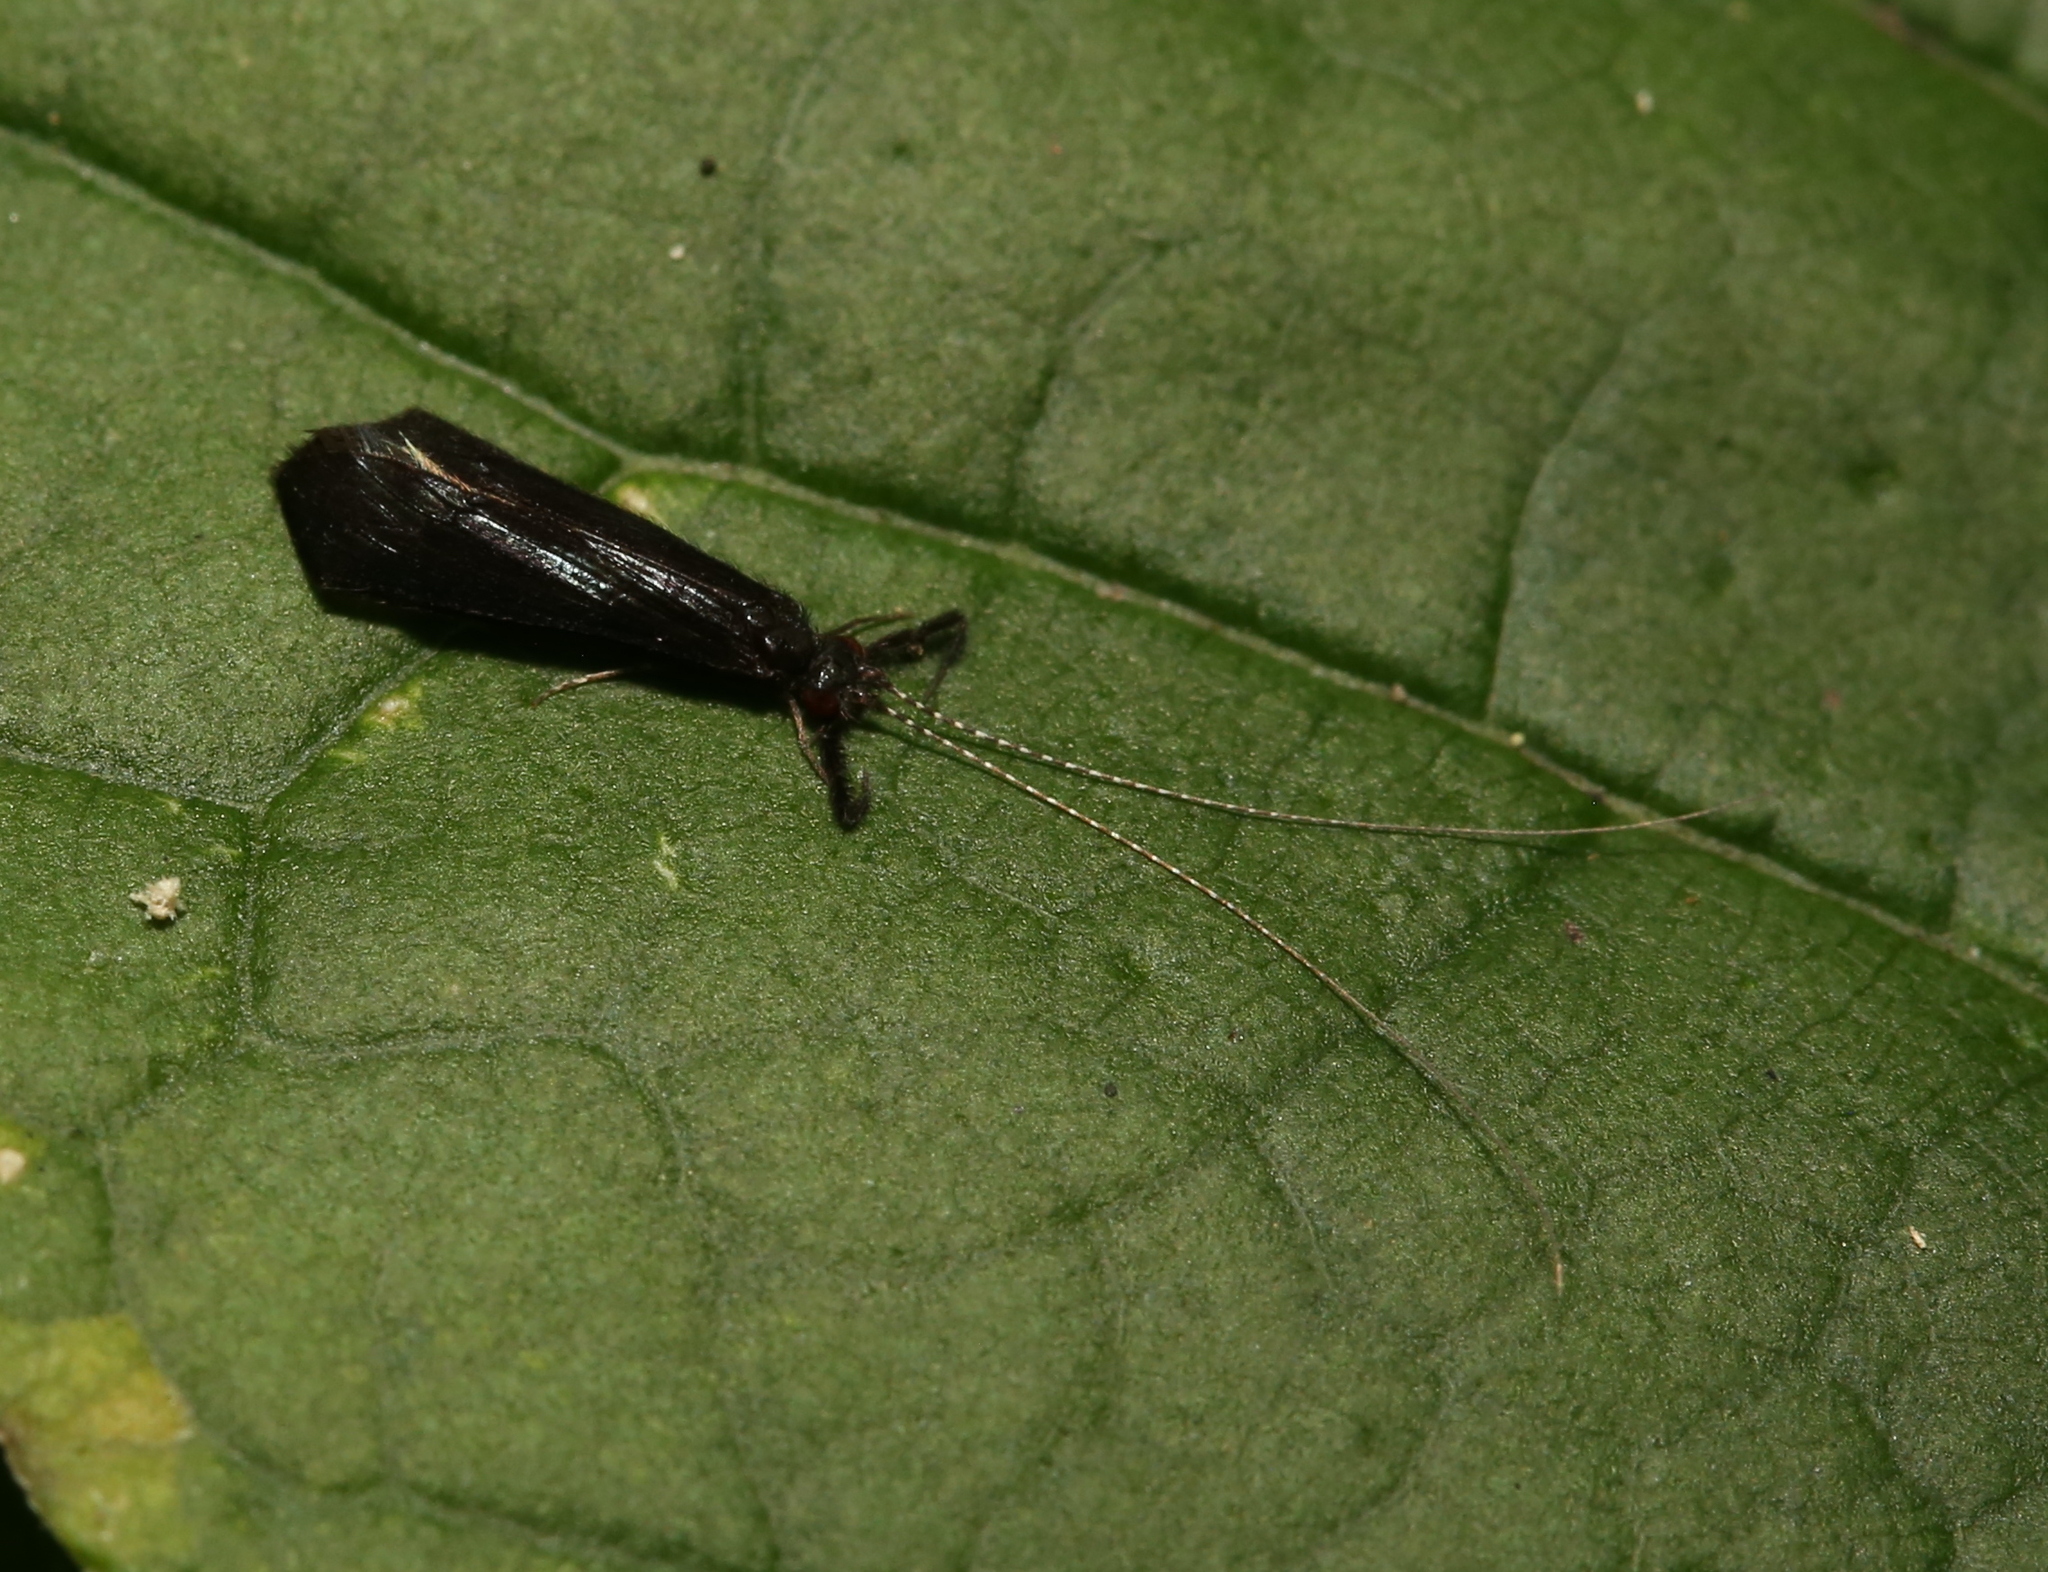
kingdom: Animalia
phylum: Arthropoda
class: Insecta
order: Trichoptera
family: Leptoceridae
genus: Mystacides
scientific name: Mystacides sepulchralis
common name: Black dancer caddisfly
